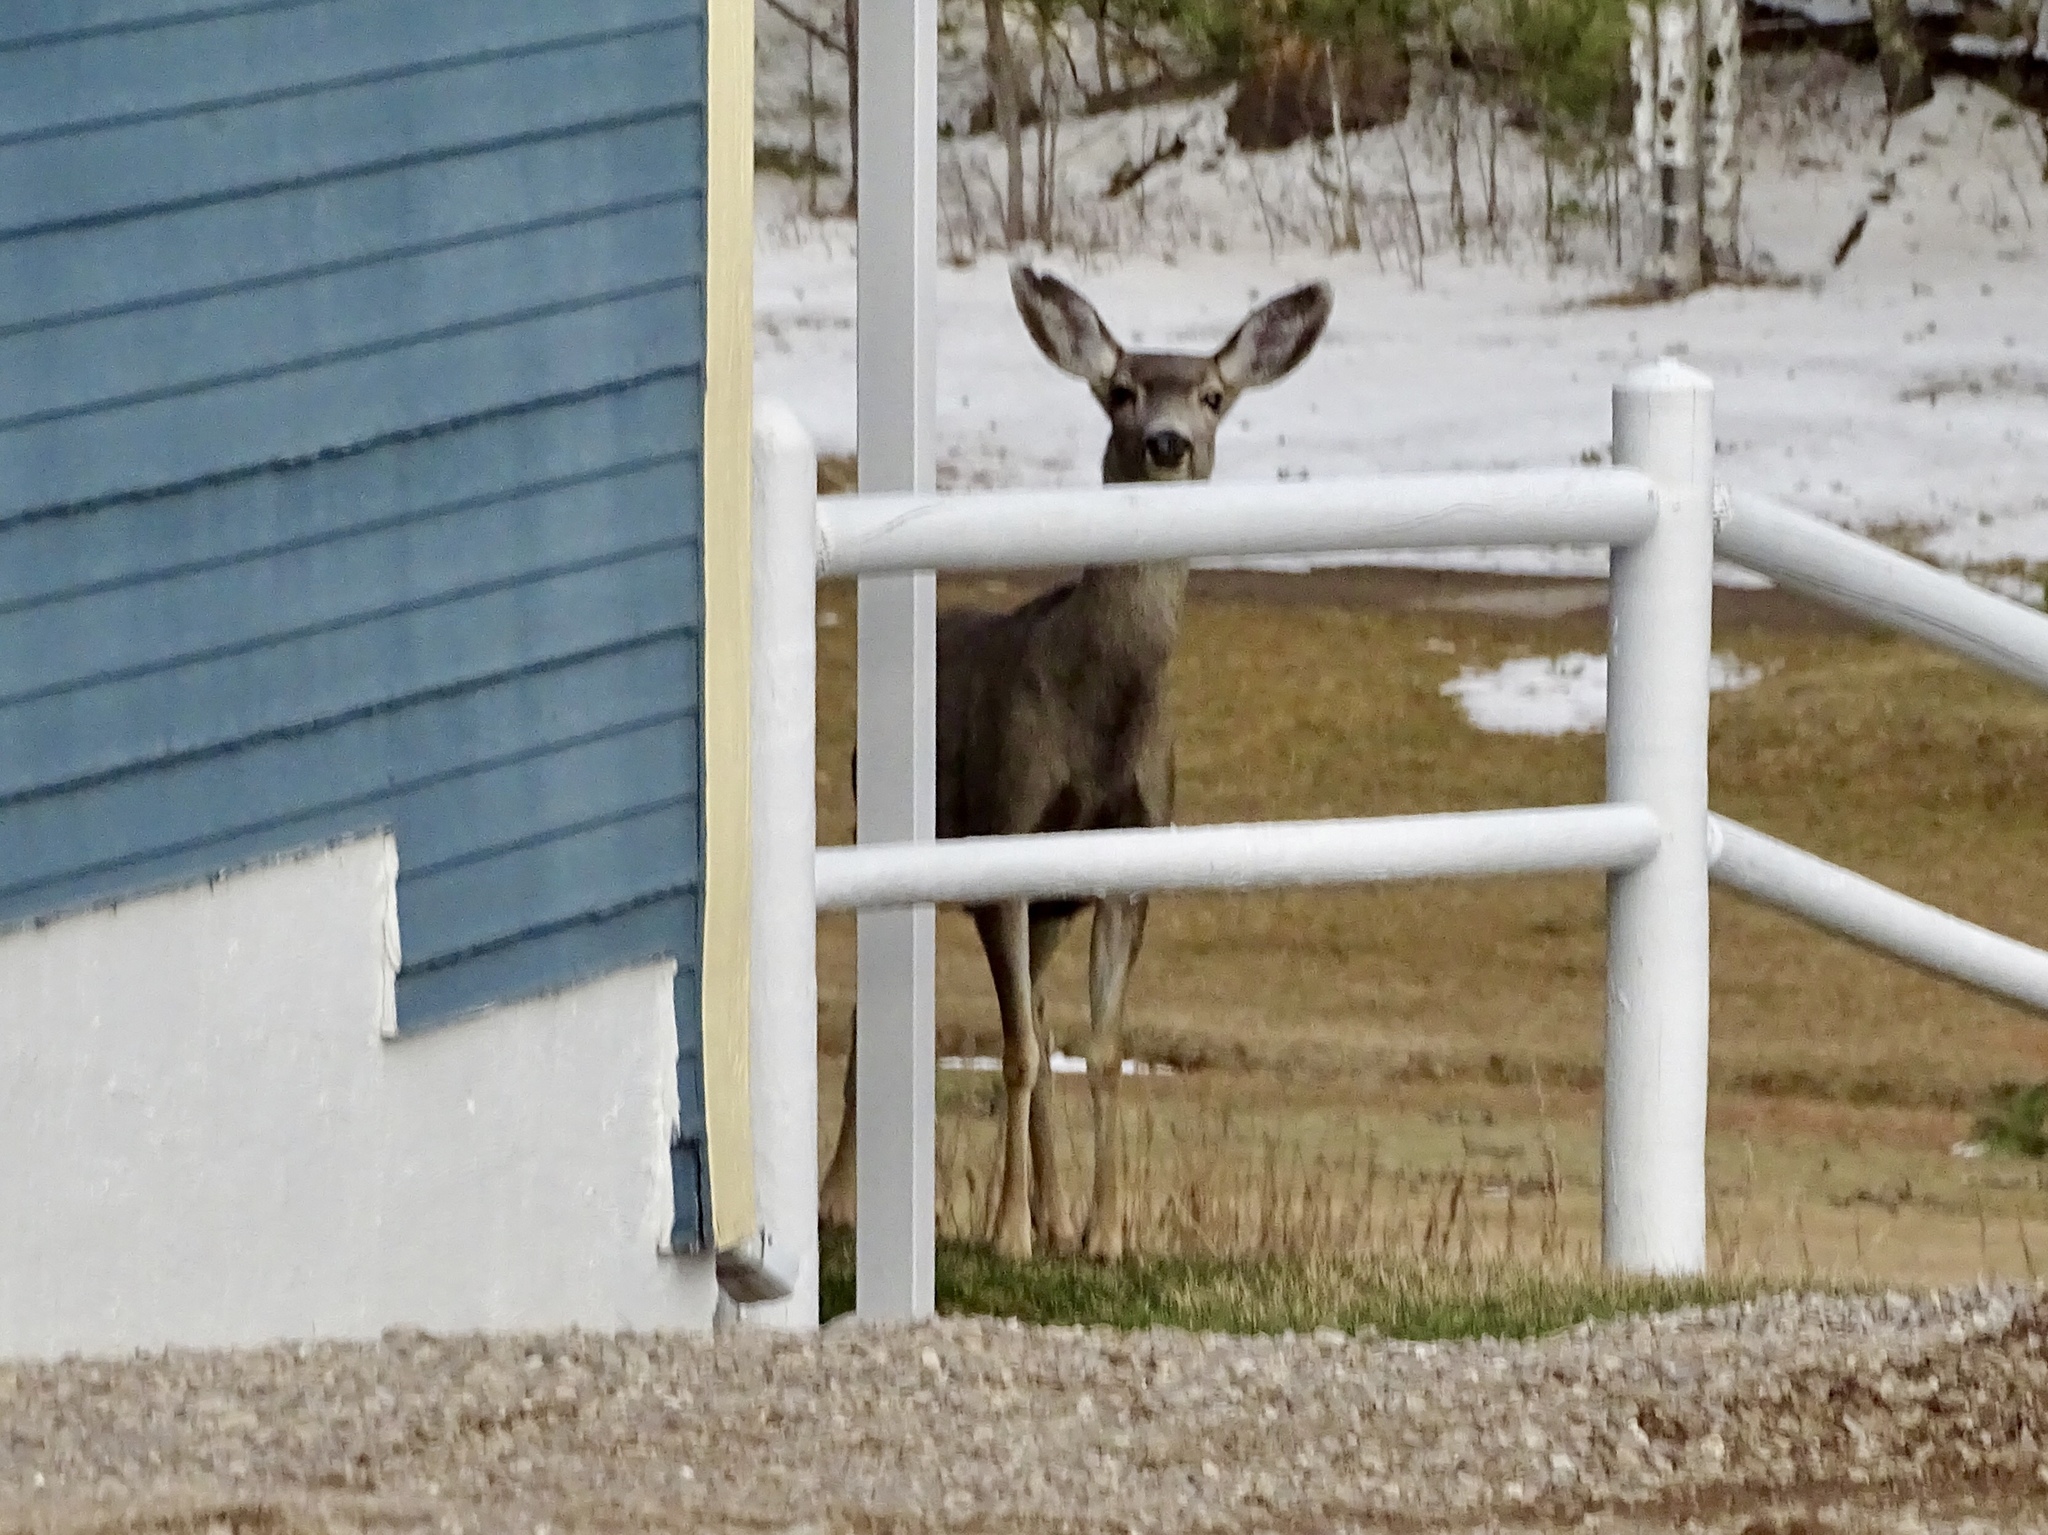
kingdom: Animalia
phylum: Chordata
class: Mammalia
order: Artiodactyla
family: Cervidae
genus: Odocoileus
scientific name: Odocoileus hemionus
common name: Mule deer
